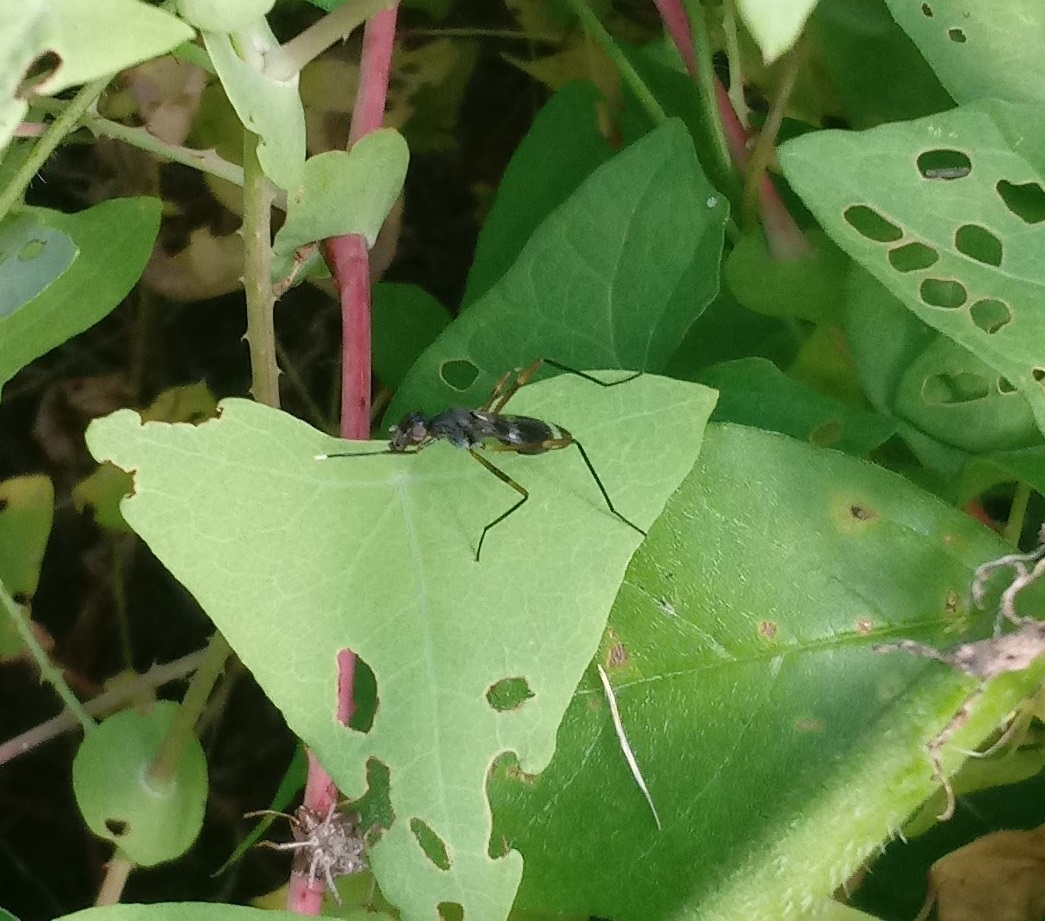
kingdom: Animalia
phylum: Arthropoda
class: Insecta
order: Diptera
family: Micropezidae
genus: Taeniaptera
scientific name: Taeniaptera trivittata
